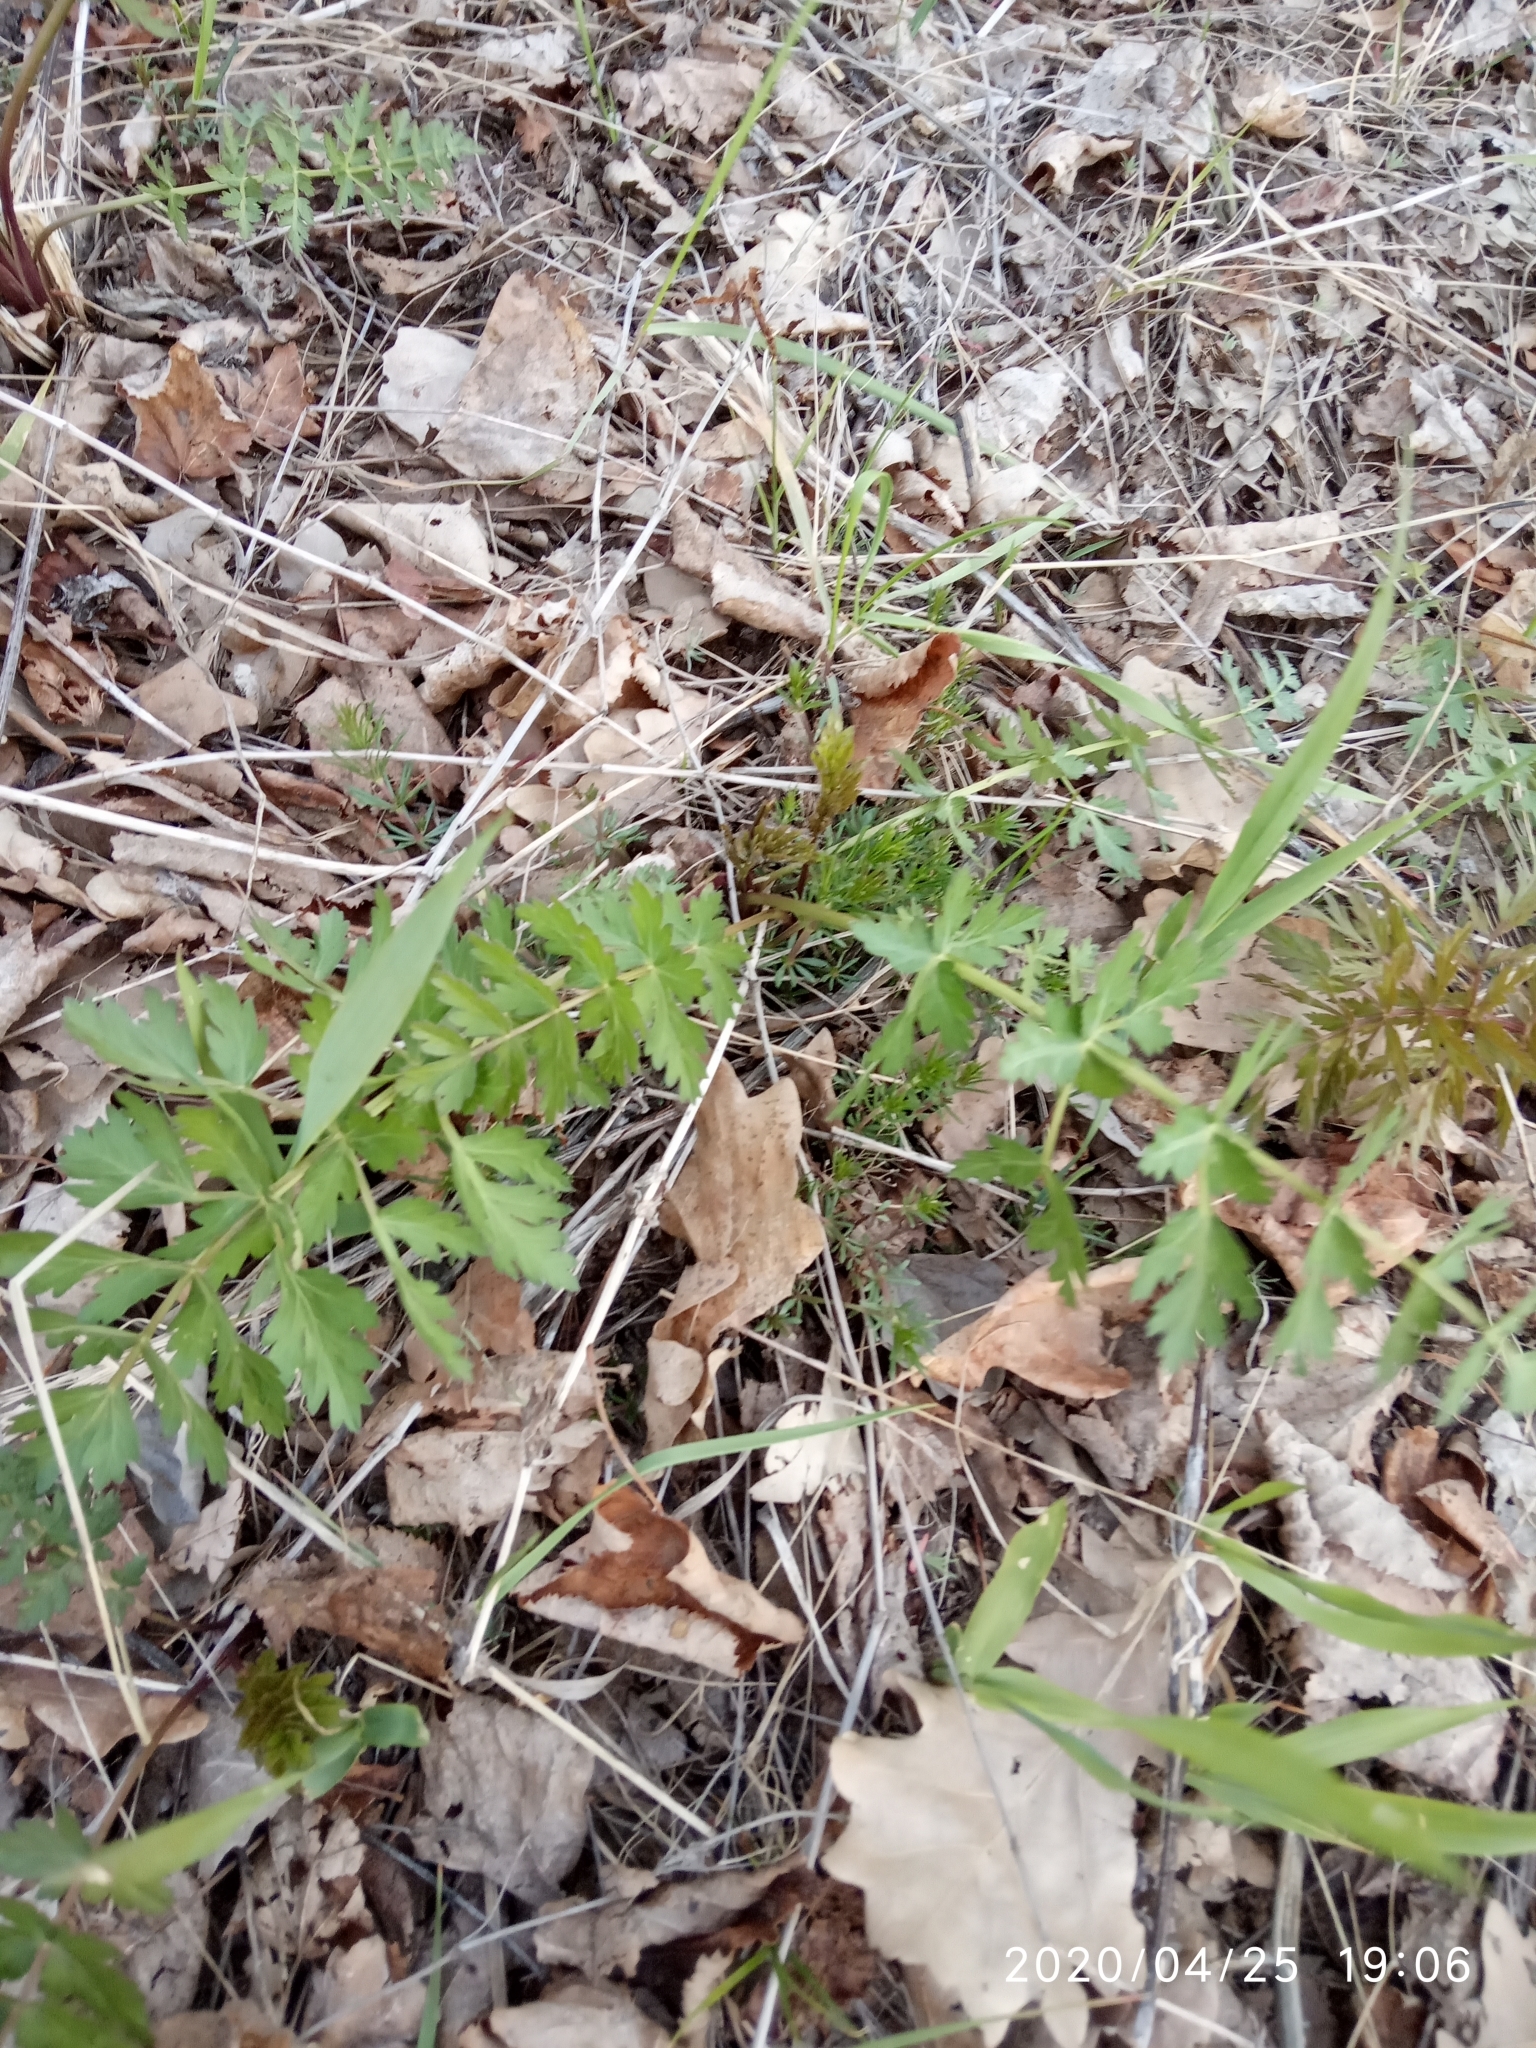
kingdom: Plantae
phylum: Tracheophyta
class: Magnoliopsida
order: Apiales
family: Apiaceae
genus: Seseli
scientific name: Seseli libanotis
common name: Mooncarrot
